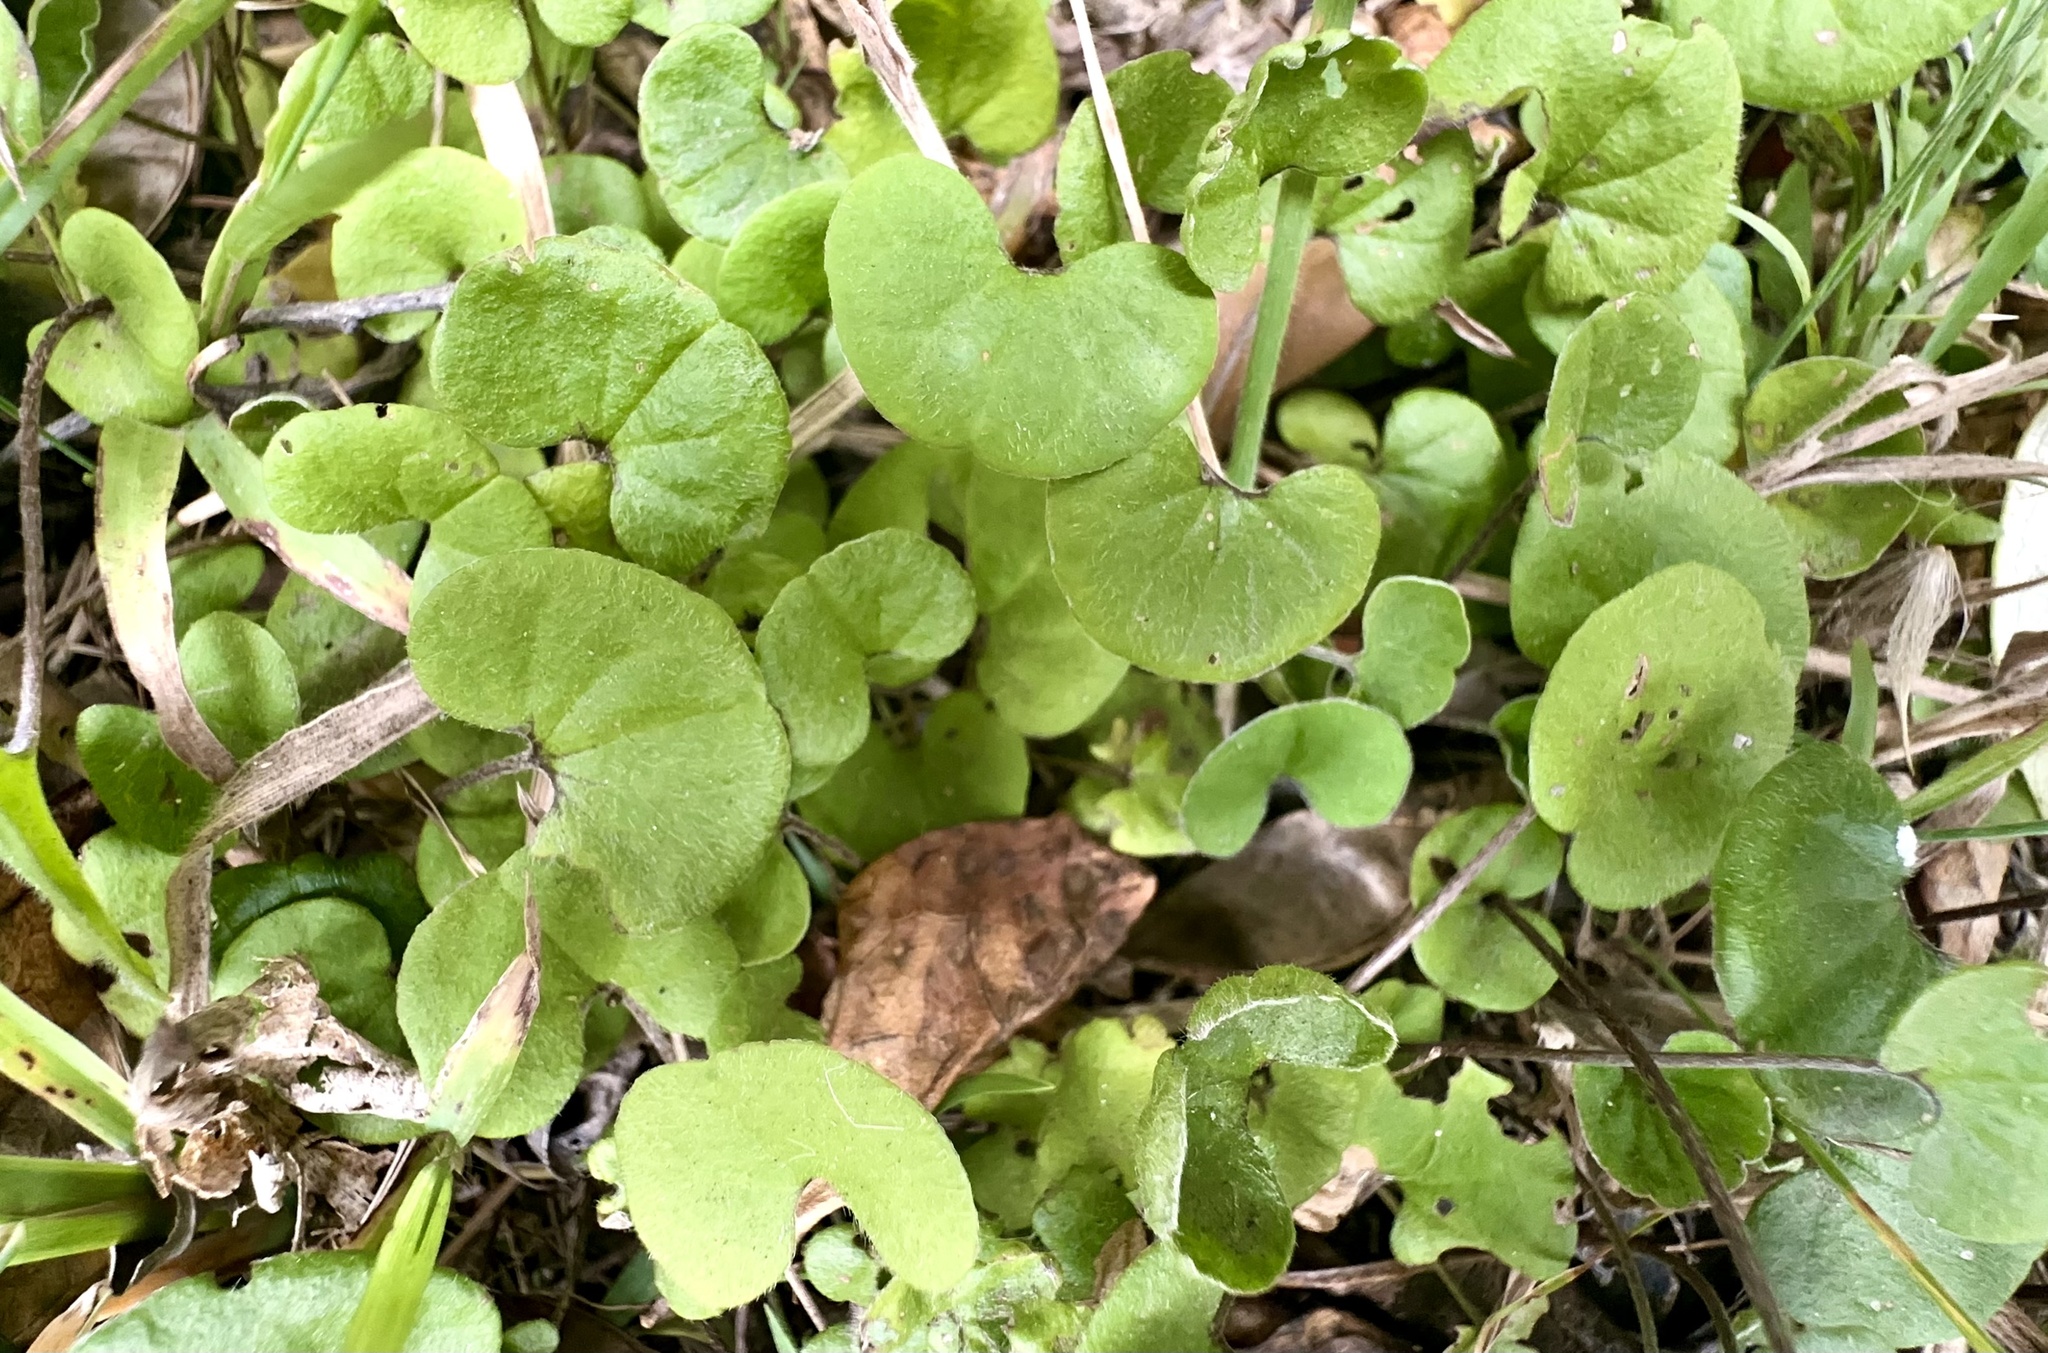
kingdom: Plantae
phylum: Tracheophyta
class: Magnoliopsida
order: Solanales
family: Convolvulaceae
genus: Dichondra
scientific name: Dichondra repens
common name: Kidneyweed
